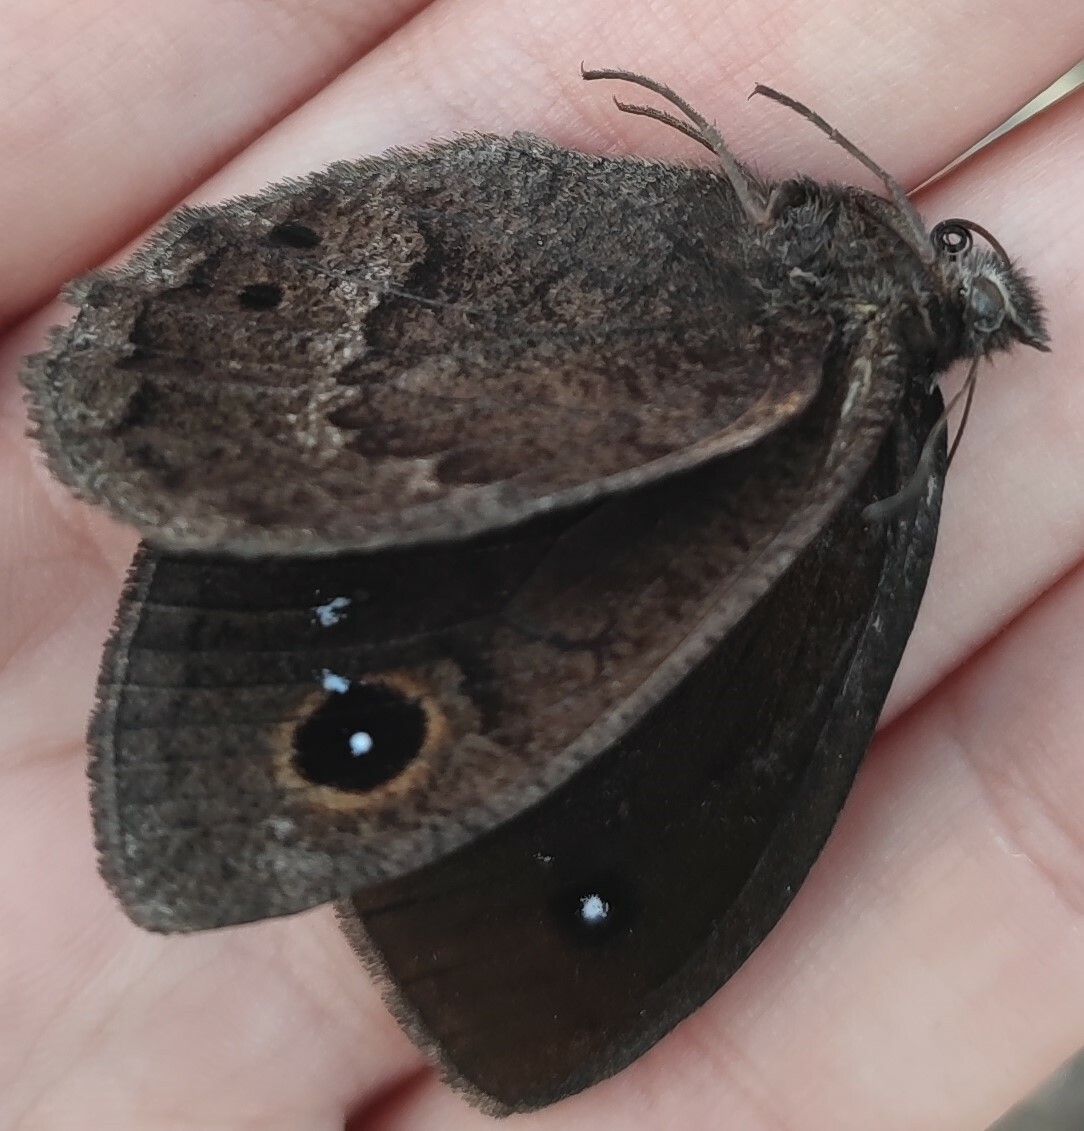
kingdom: Animalia
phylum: Arthropoda
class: Insecta
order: Lepidoptera
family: Nymphalidae
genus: Satyrus
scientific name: Satyrus ferula
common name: Great sooty satyr
